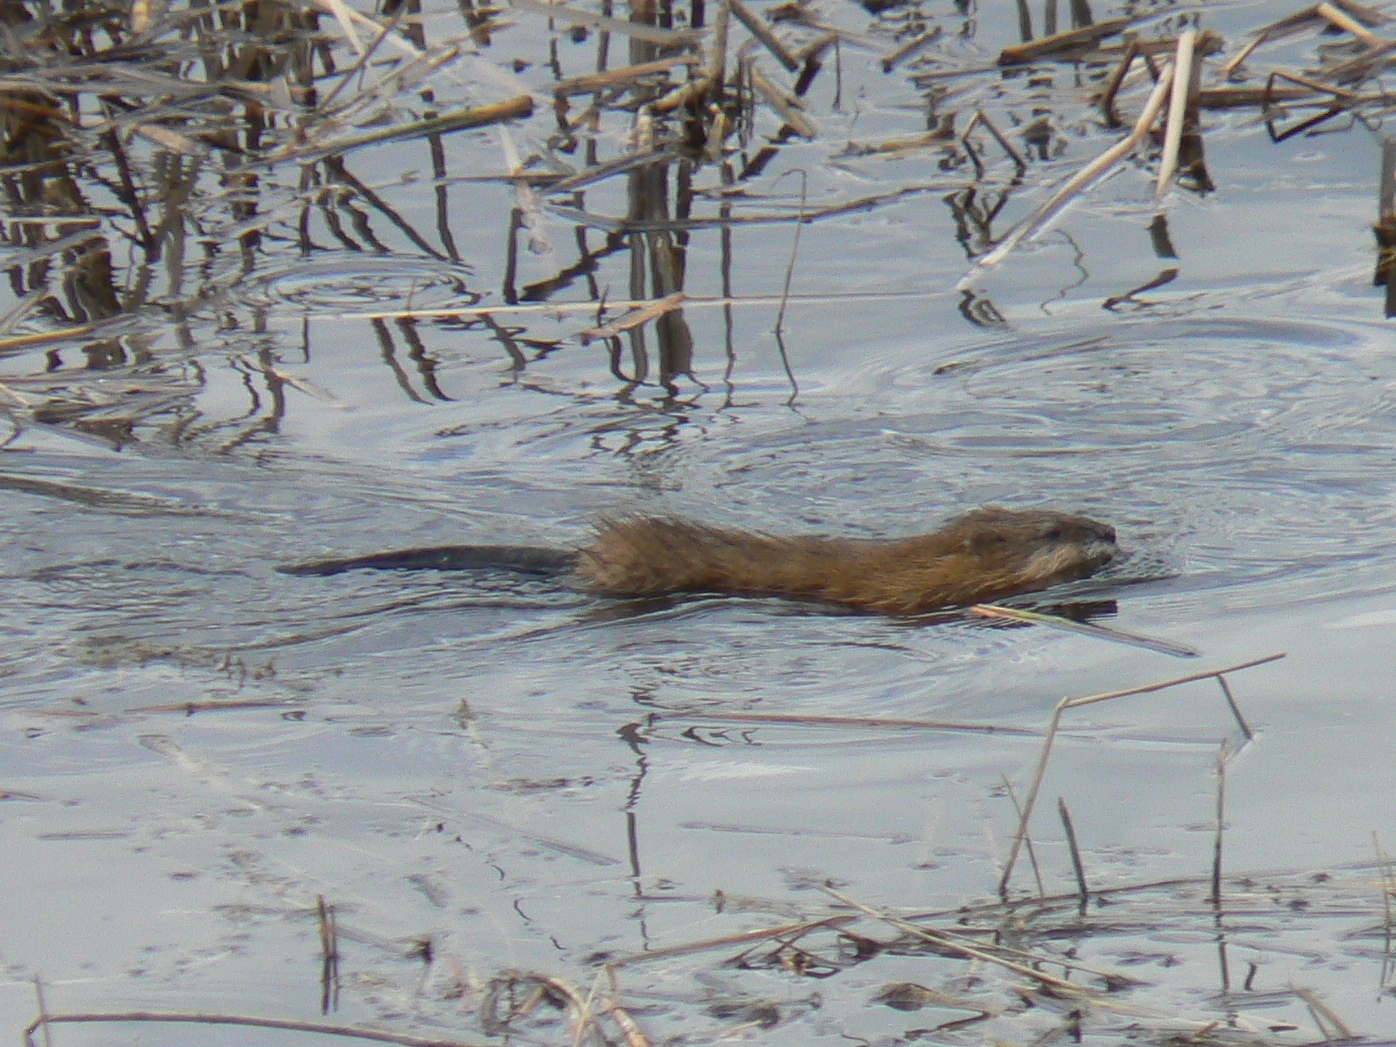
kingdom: Animalia
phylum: Chordata
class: Mammalia
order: Rodentia
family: Cricetidae
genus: Ondatra
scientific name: Ondatra zibethicus
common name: Muskrat
